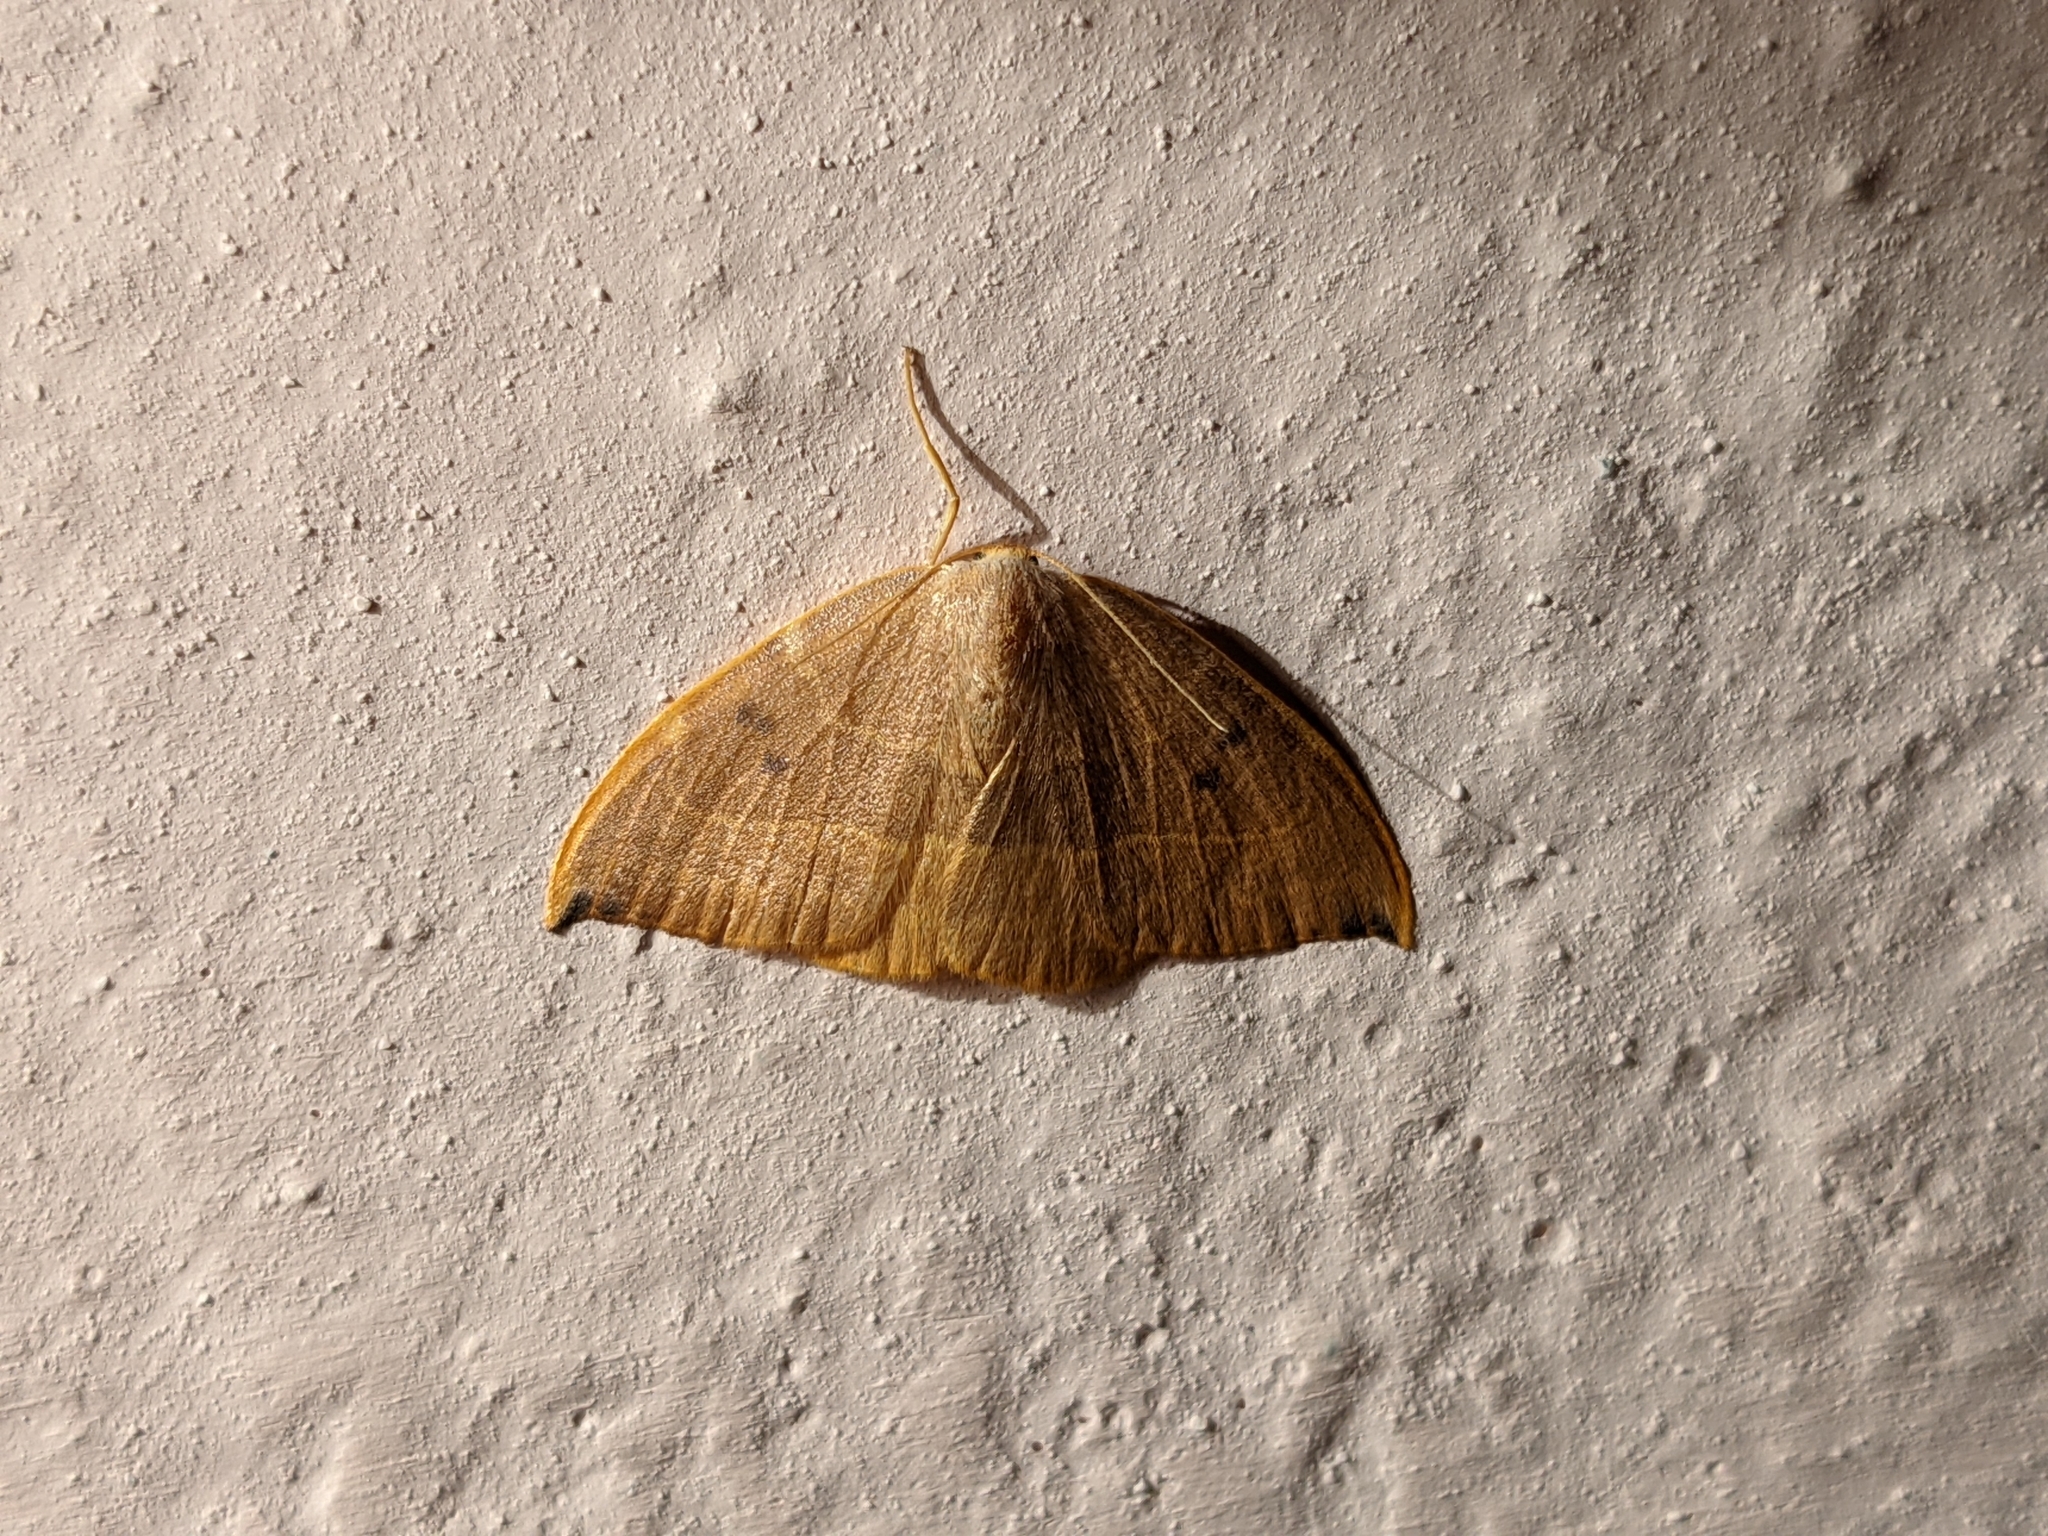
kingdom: Animalia
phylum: Arthropoda
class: Insecta
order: Lepidoptera
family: Drepanidae
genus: Watsonalla
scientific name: Watsonalla binaria
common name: Oak hook-tip
